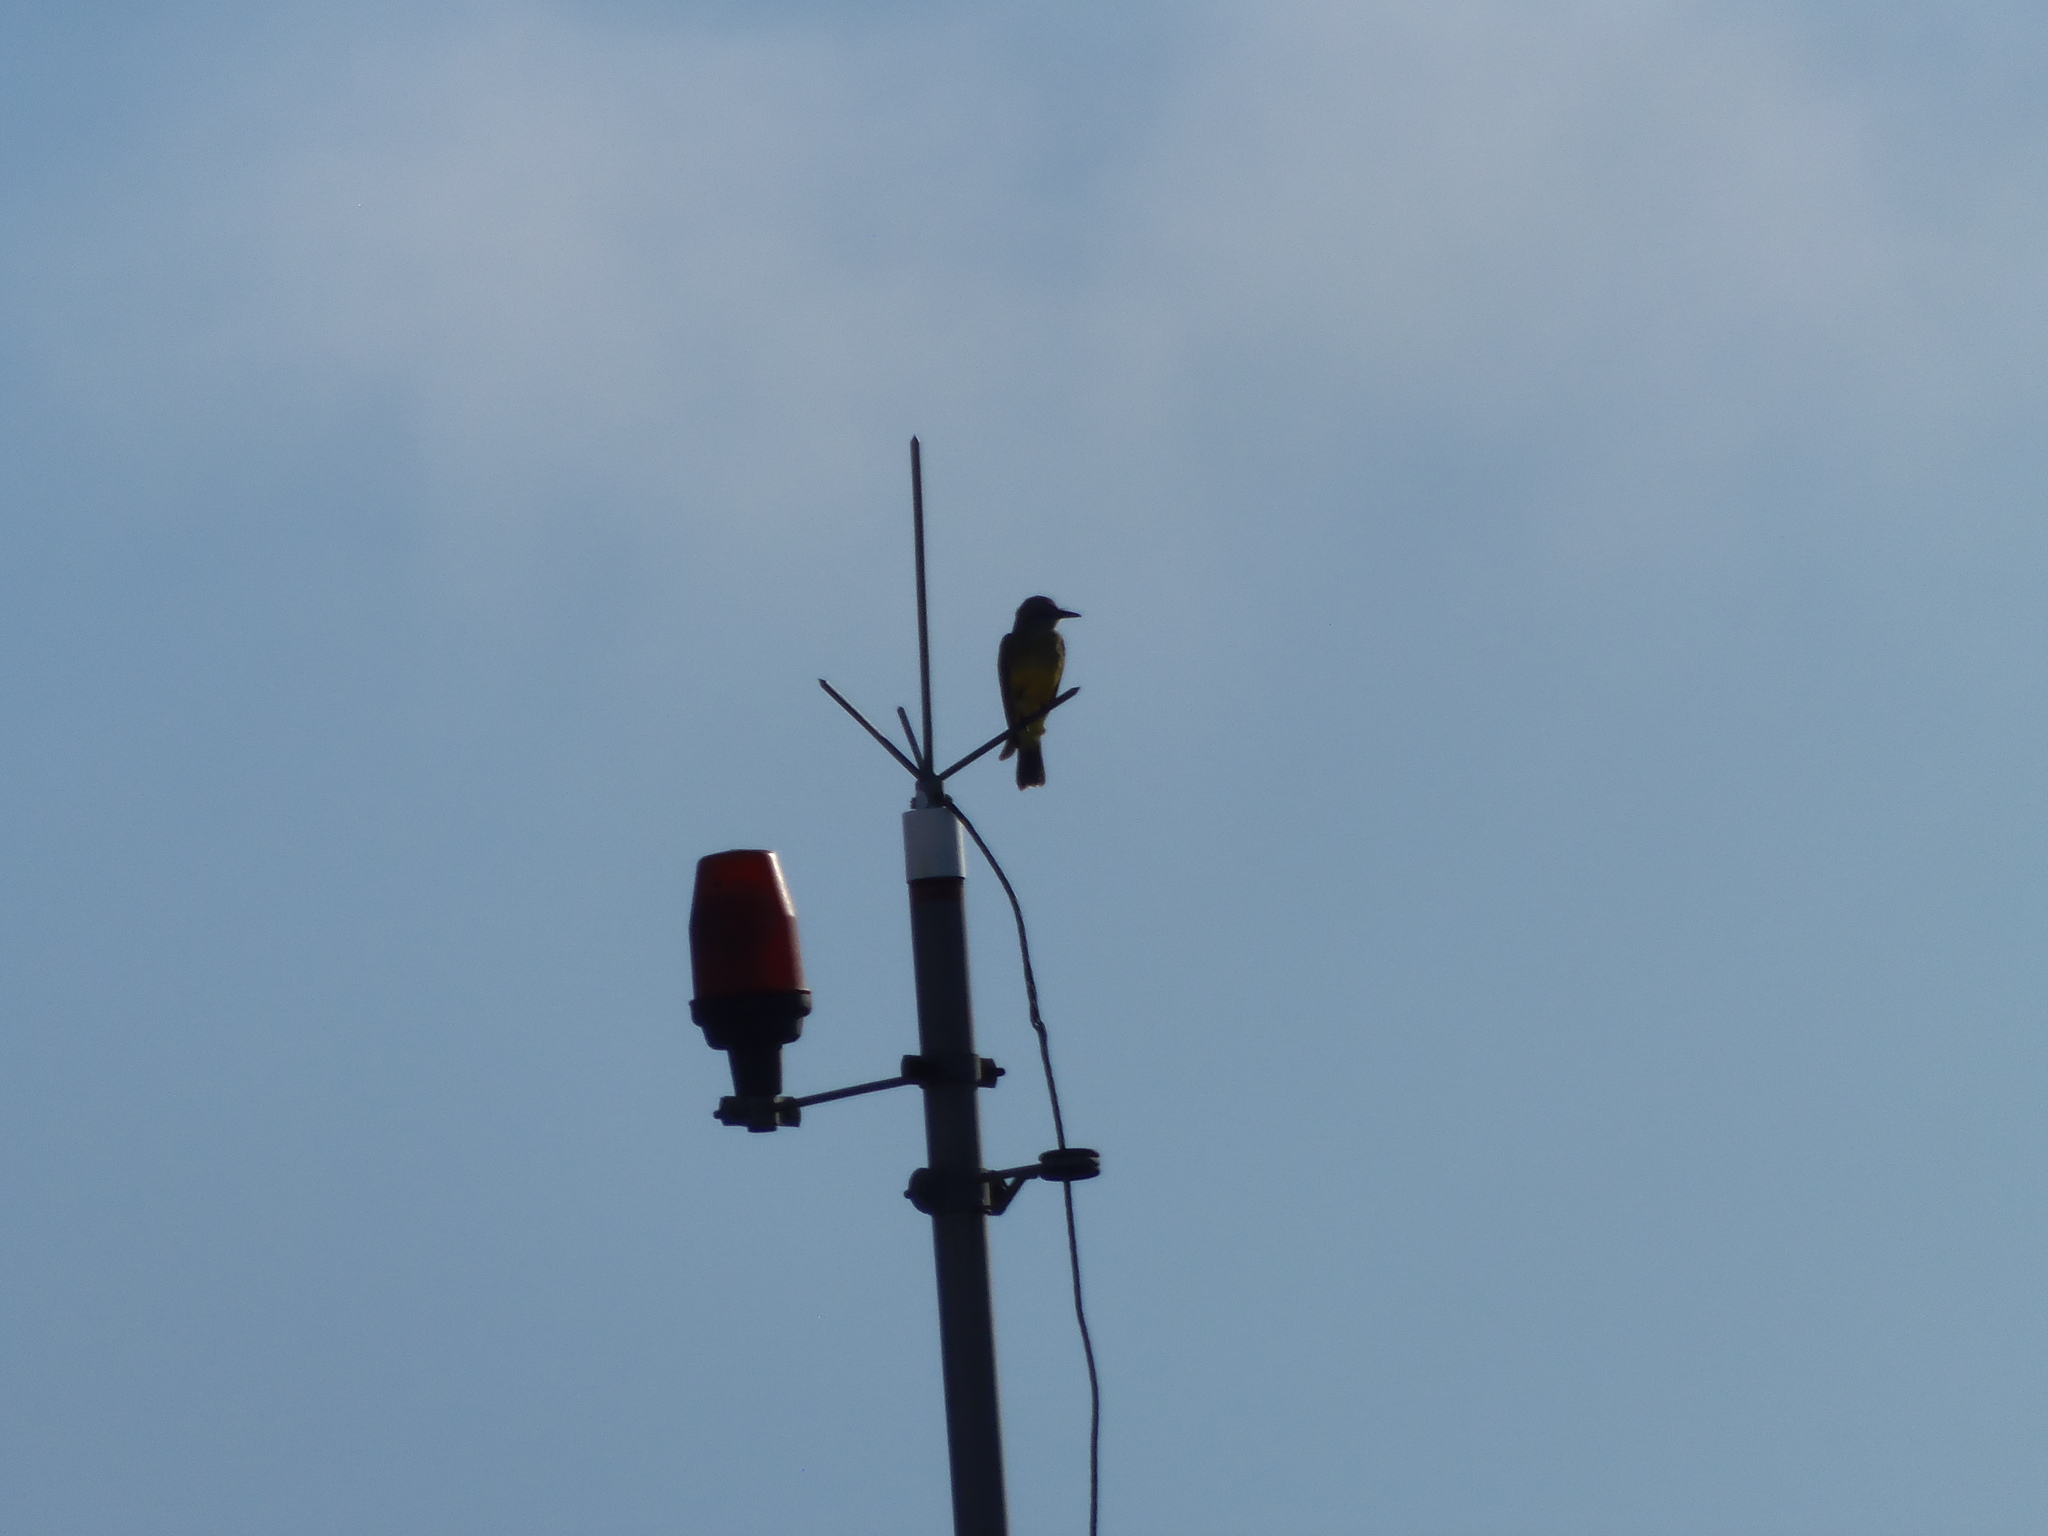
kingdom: Animalia
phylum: Chordata
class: Aves
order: Passeriformes
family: Tyrannidae
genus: Tyrannus
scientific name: Tyrannus melancholicus
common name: Tropical kingbird
